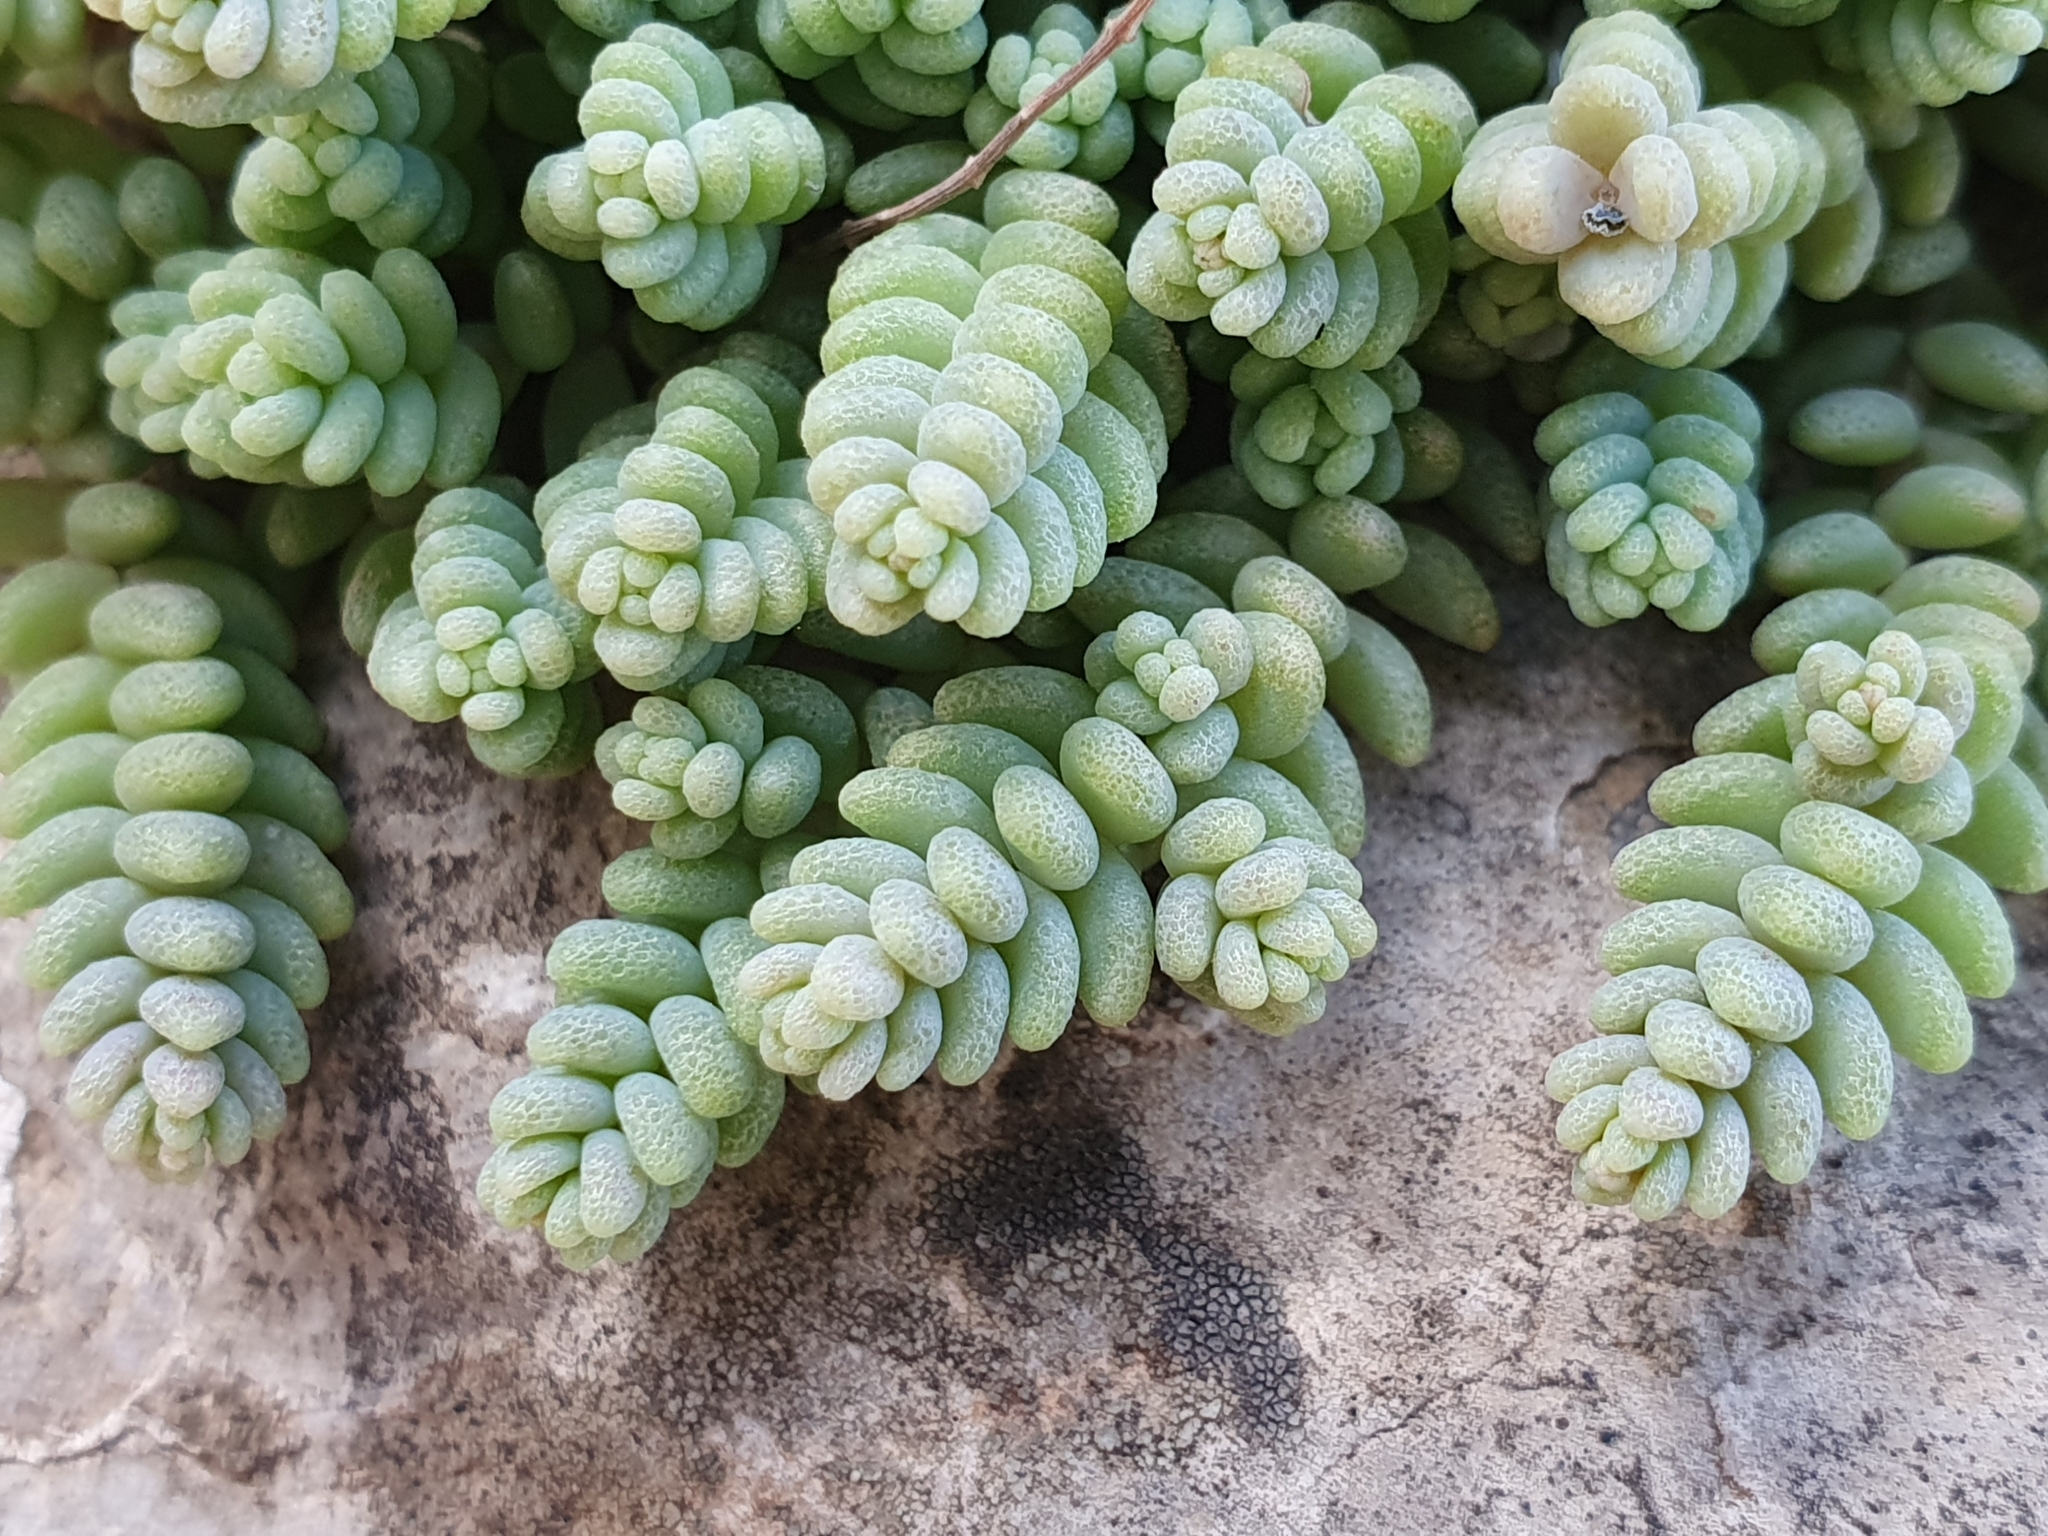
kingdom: Plantae
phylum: Tracheophyta
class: Magnoliopsida
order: Saxifragales
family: Crassulaceae
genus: Sedum
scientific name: Sedum dasyphyllum
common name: Thick-leaf stonecrop
